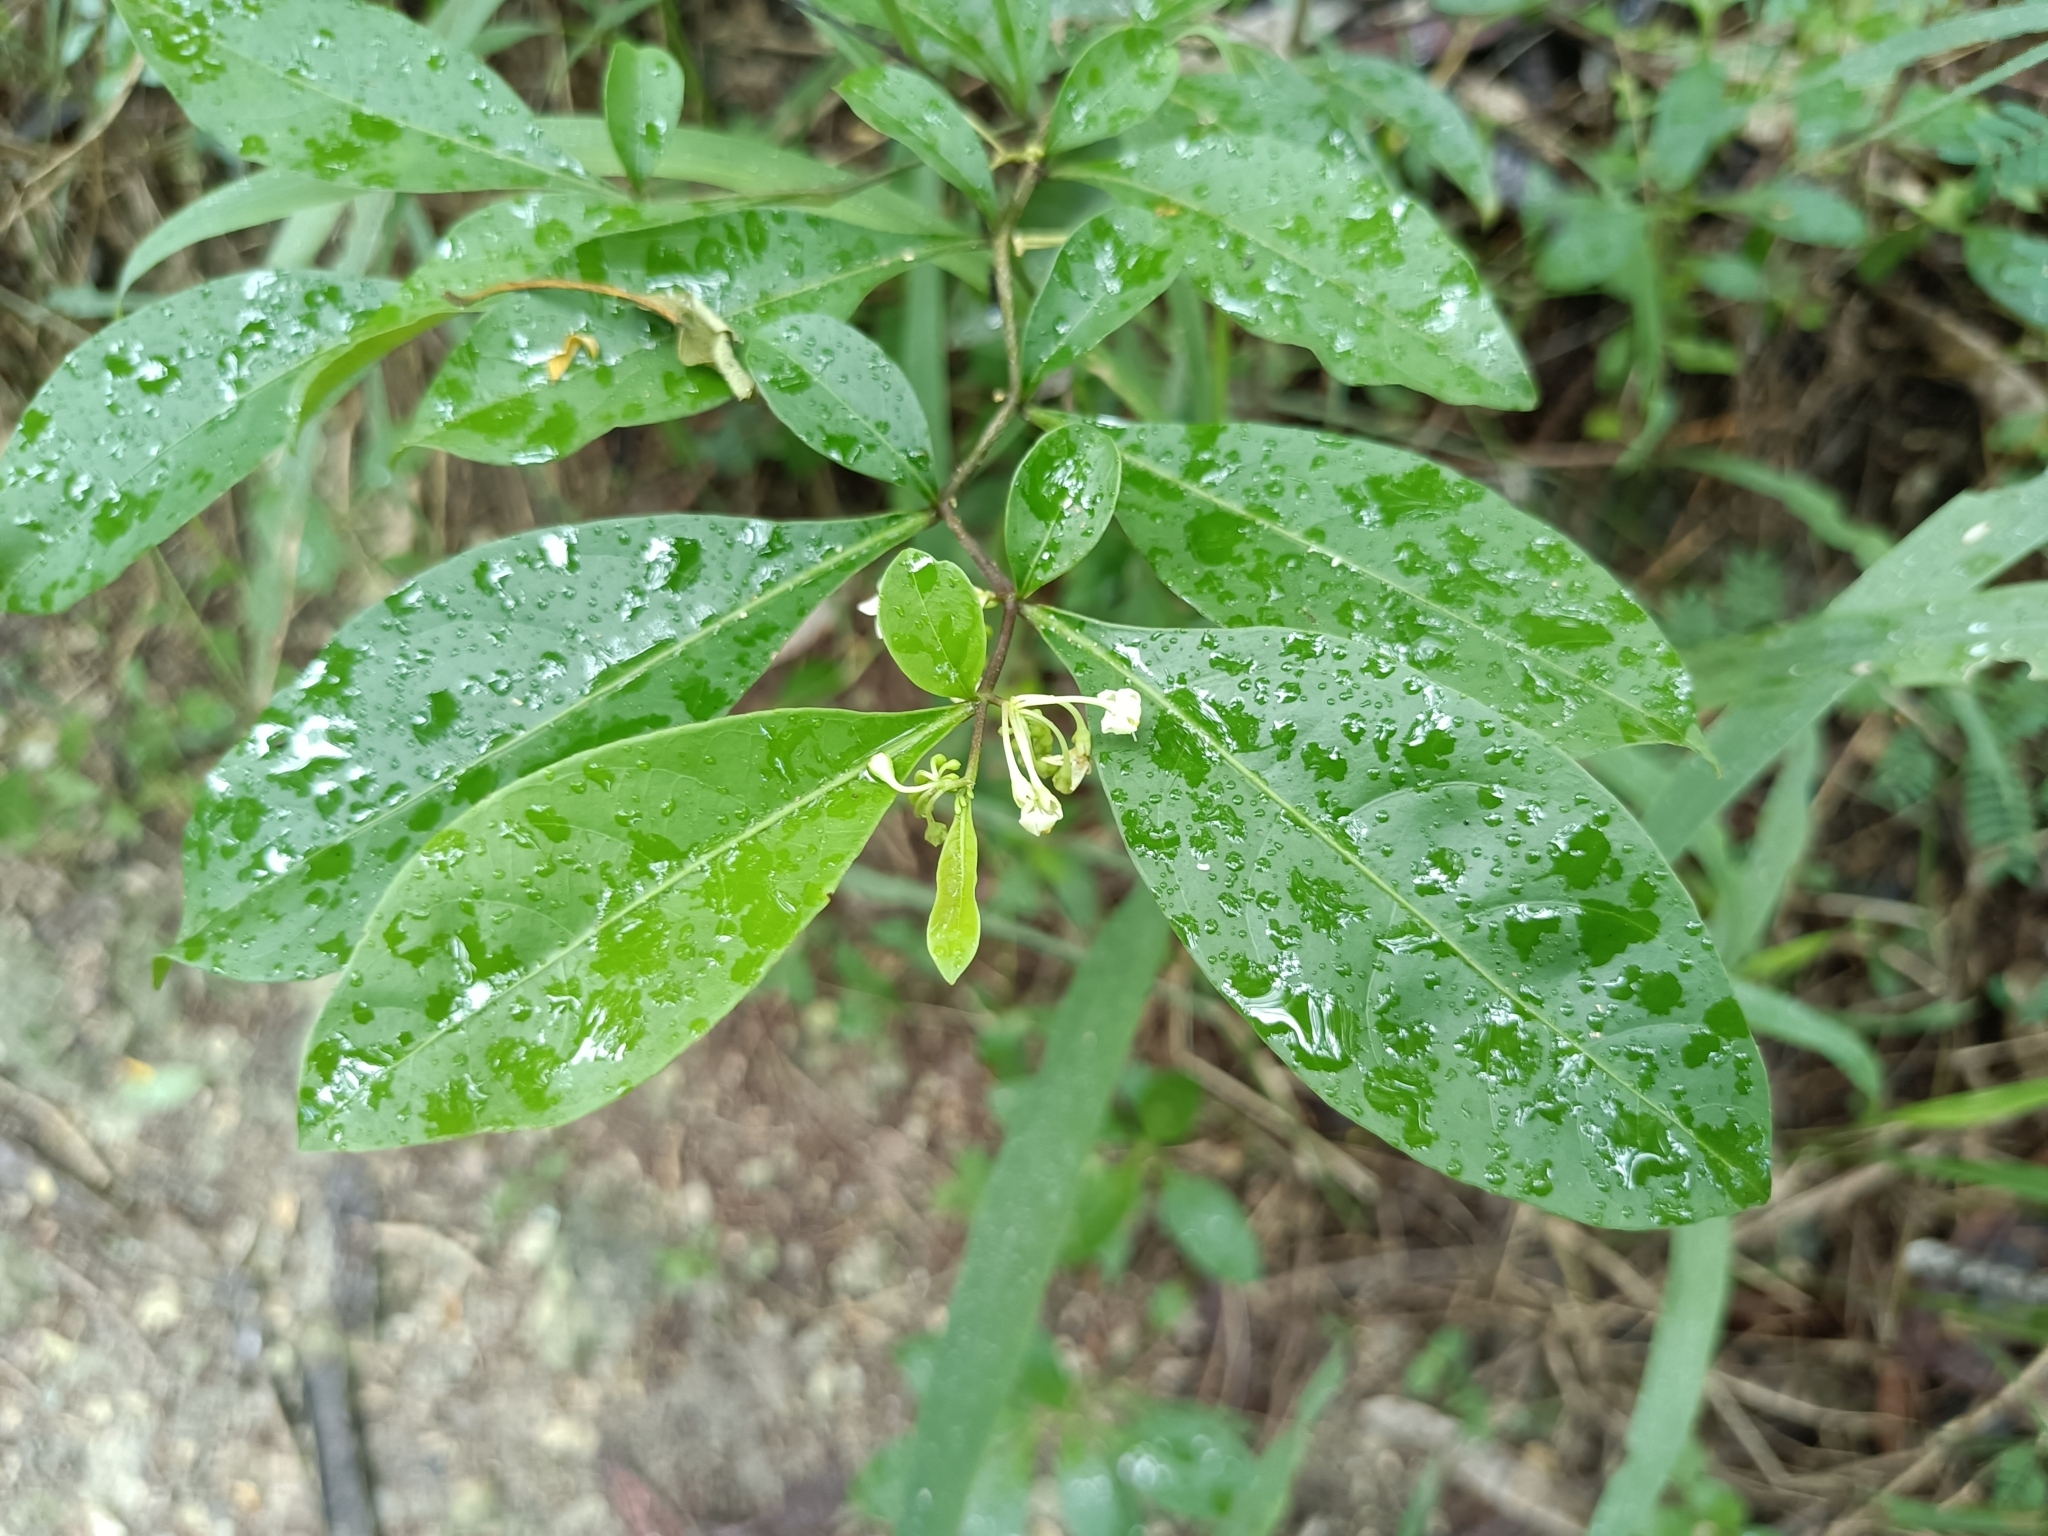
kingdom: Plantae
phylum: Tracheophyta
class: Magnoliopsida
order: Solanales
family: Solanaceae
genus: Solanum
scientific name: Solanum diphyllum
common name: Twoleaf nightshade
